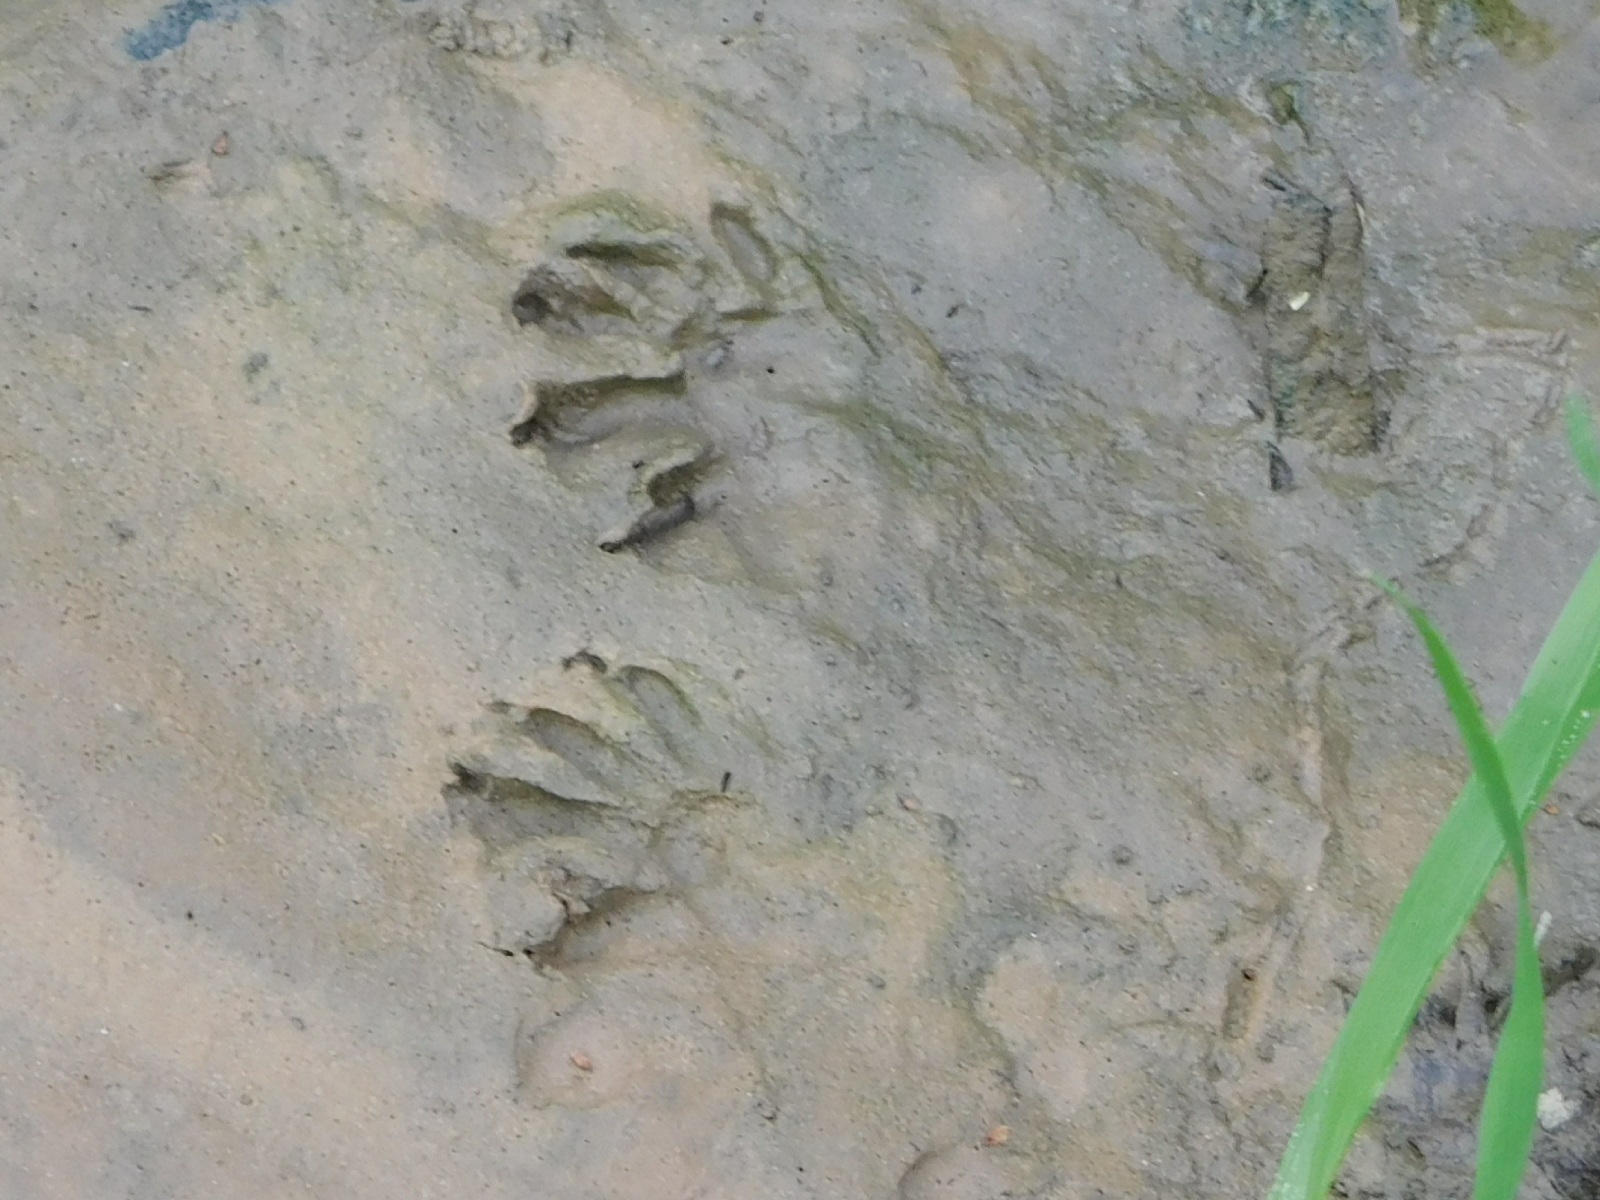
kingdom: Animalia
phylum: Chordata
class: Mammalia
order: Carnivora
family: Procyonidae
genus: Procyon
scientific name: Procyon lotor
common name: Raccoon
